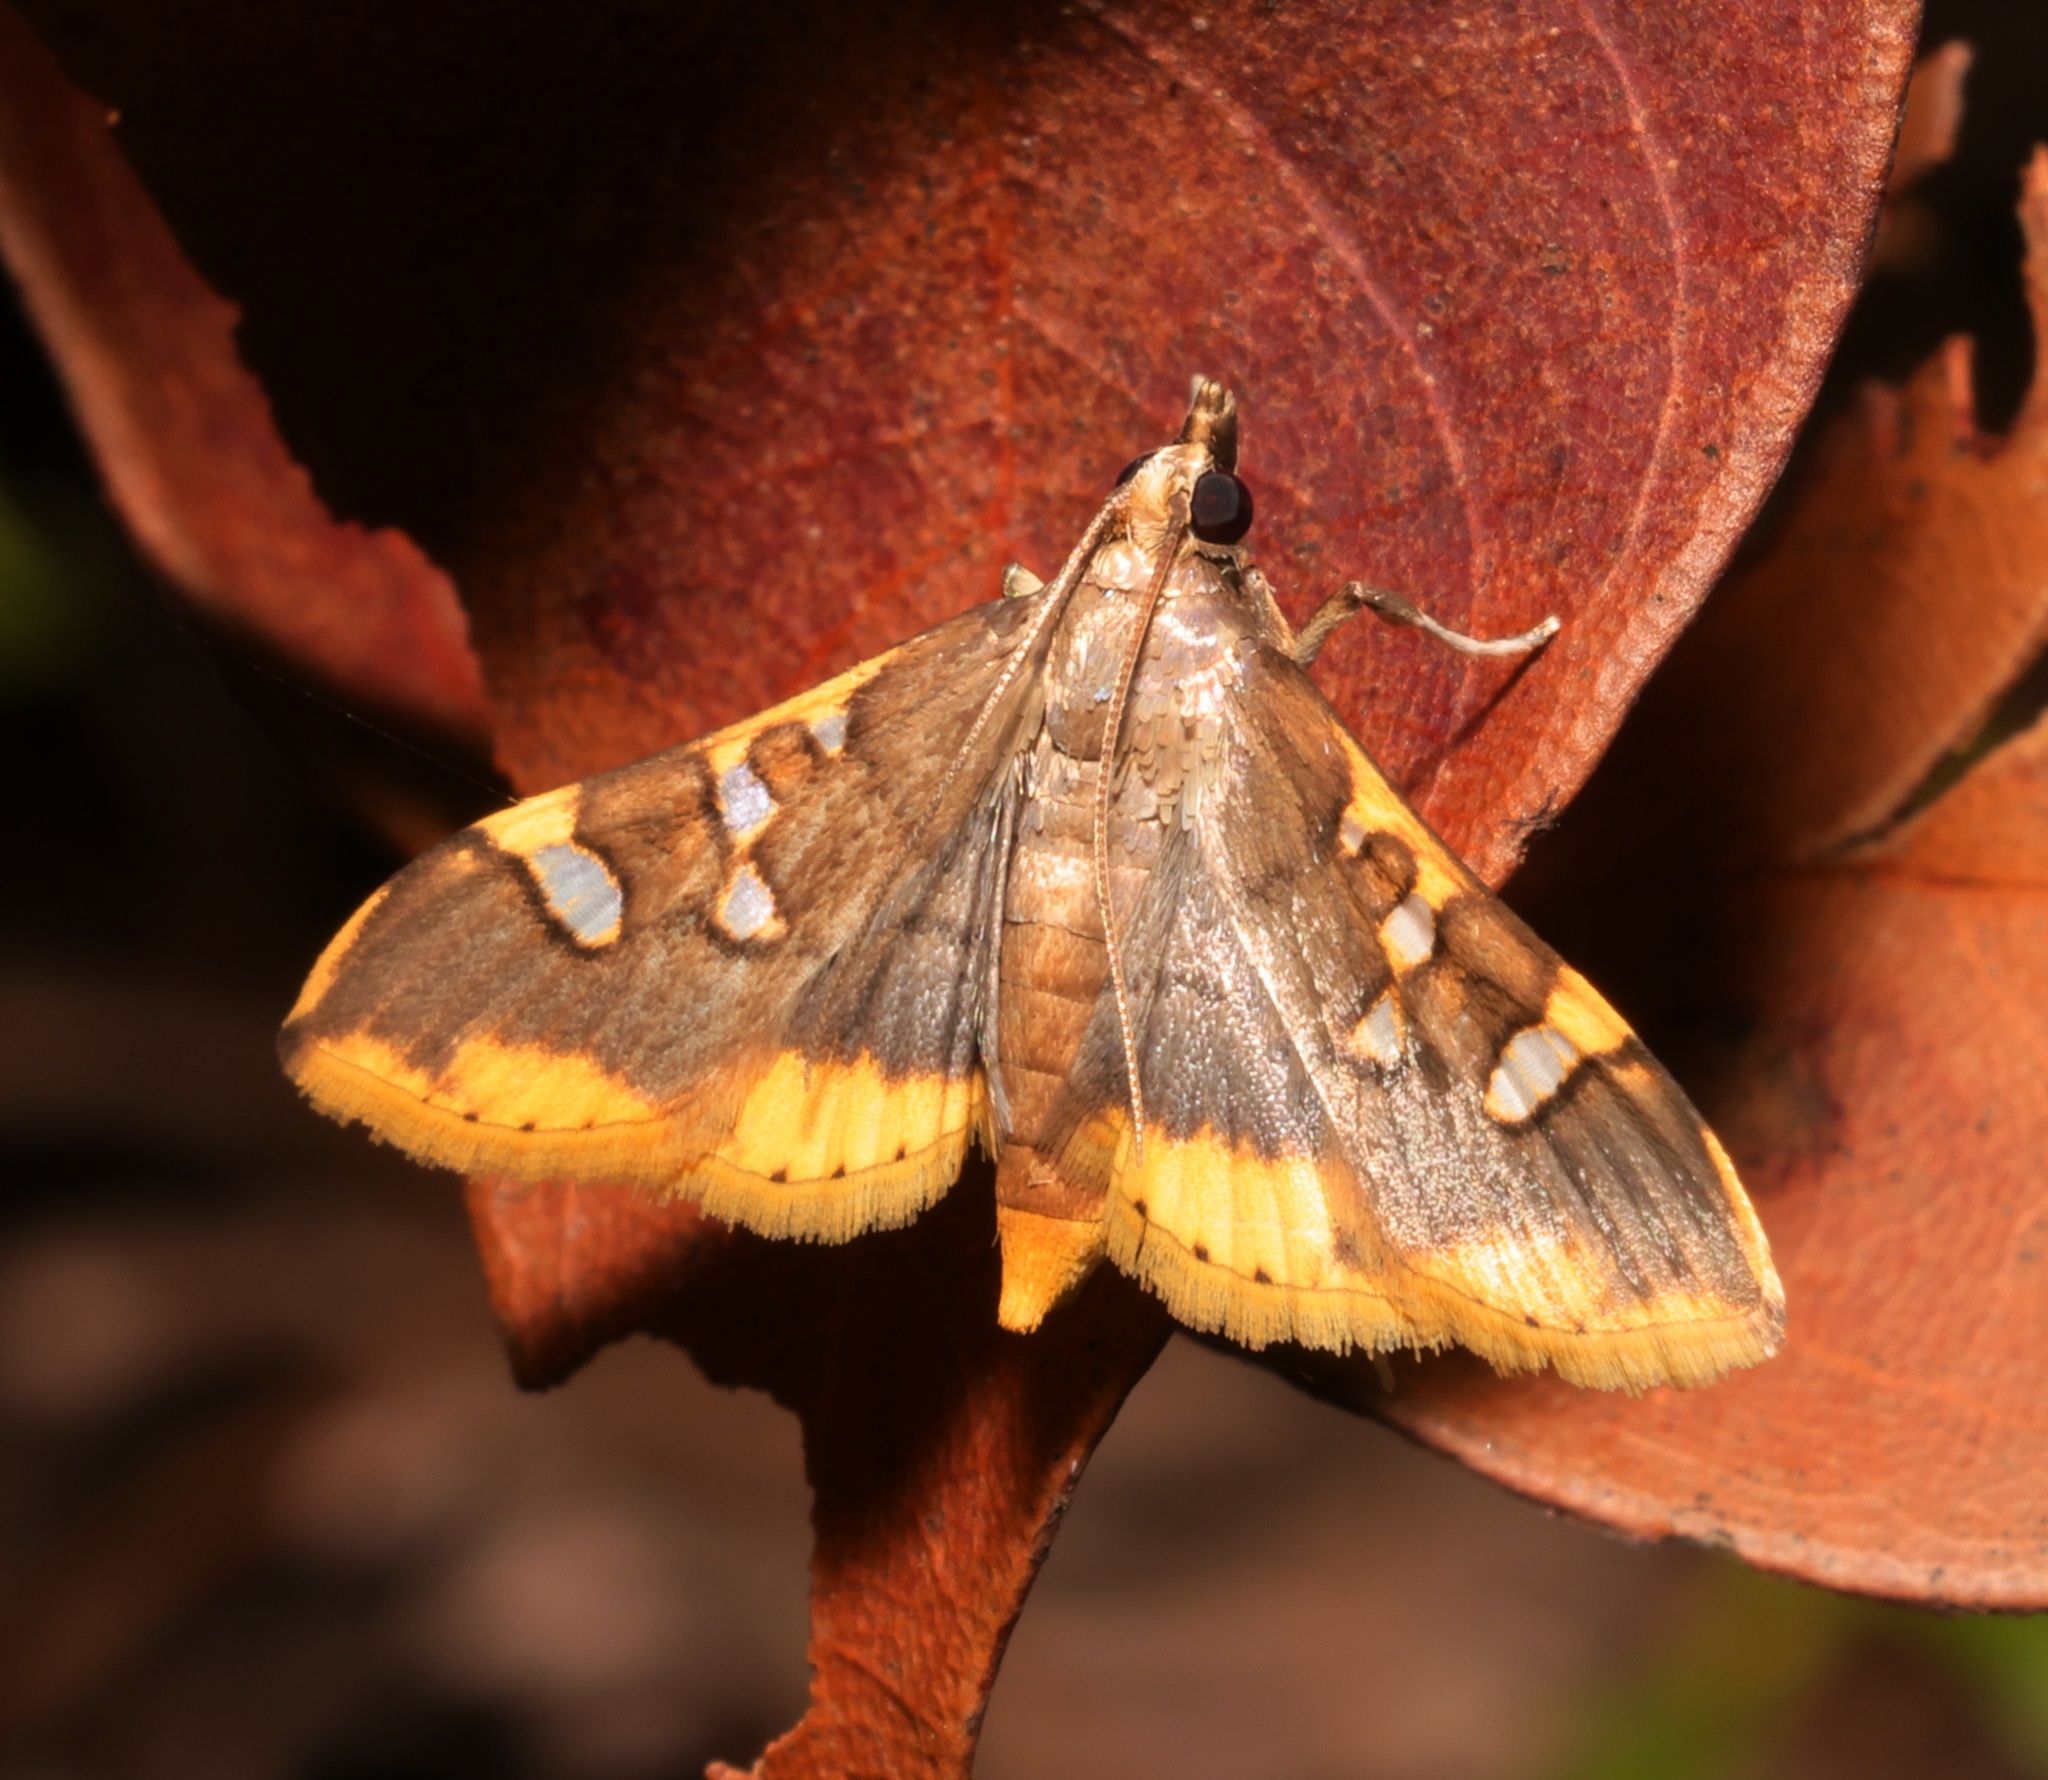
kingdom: Animalia
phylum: Arthropoda
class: Insecta
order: Lepidoptera
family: Crambidae
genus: Prophantis
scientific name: Prophantis adusta
